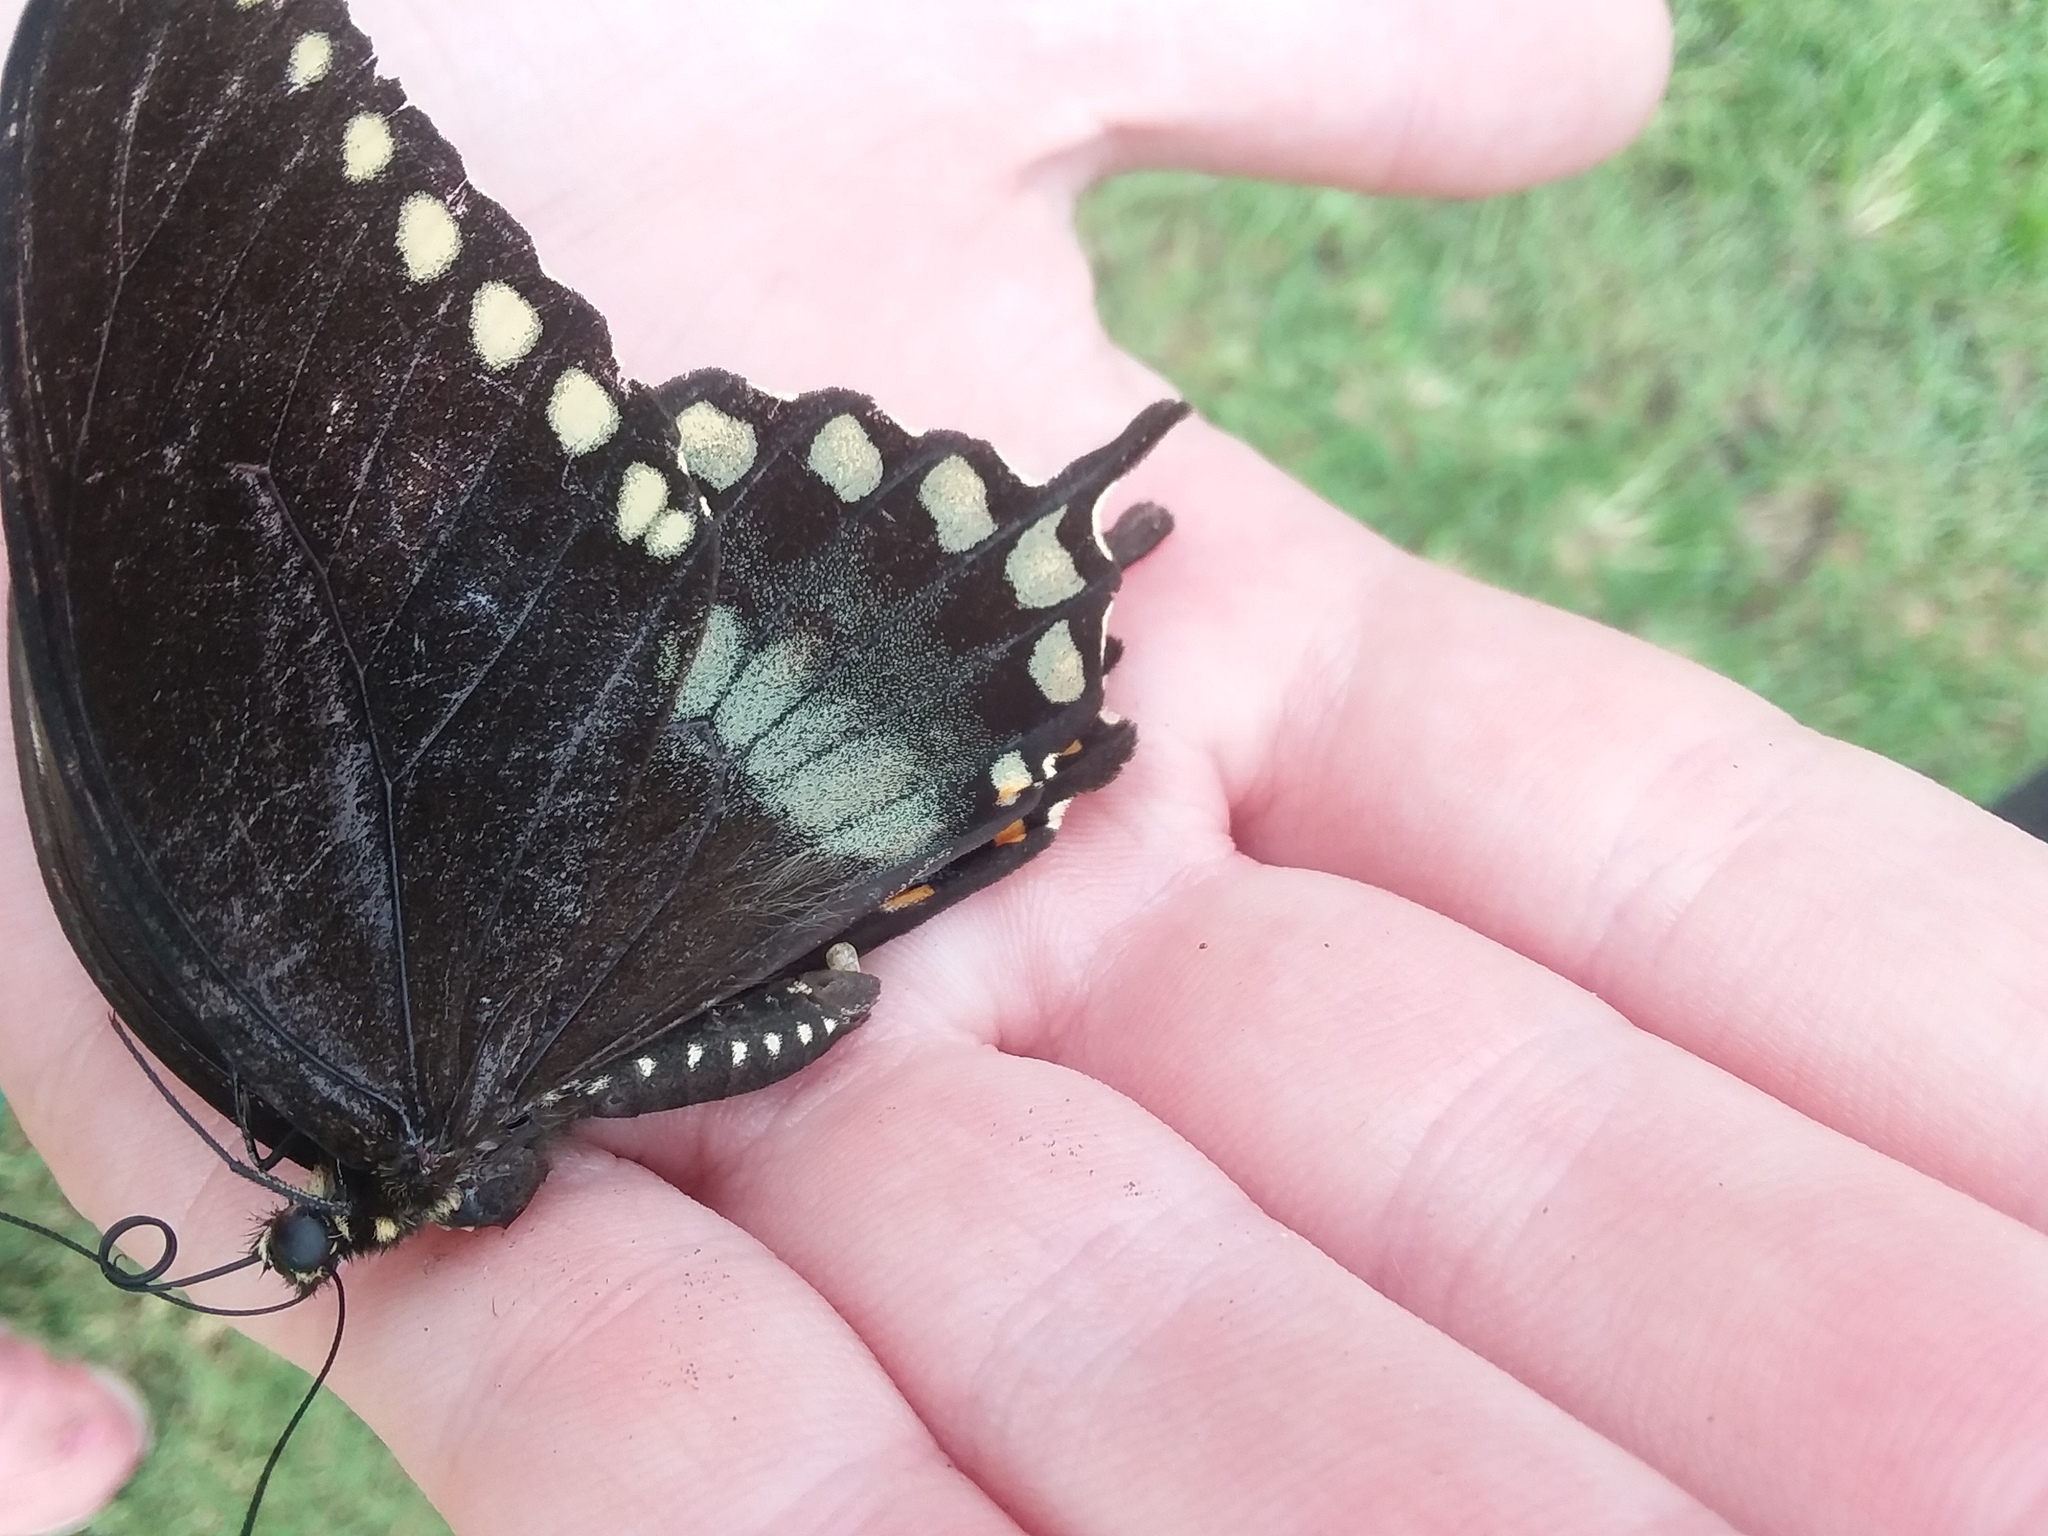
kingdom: Animalia
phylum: Arthropoda
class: Insecta
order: Lepidoptera
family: Papilionidae
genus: Papilio
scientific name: Papilio troilus
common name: Spicebush swallowtail
